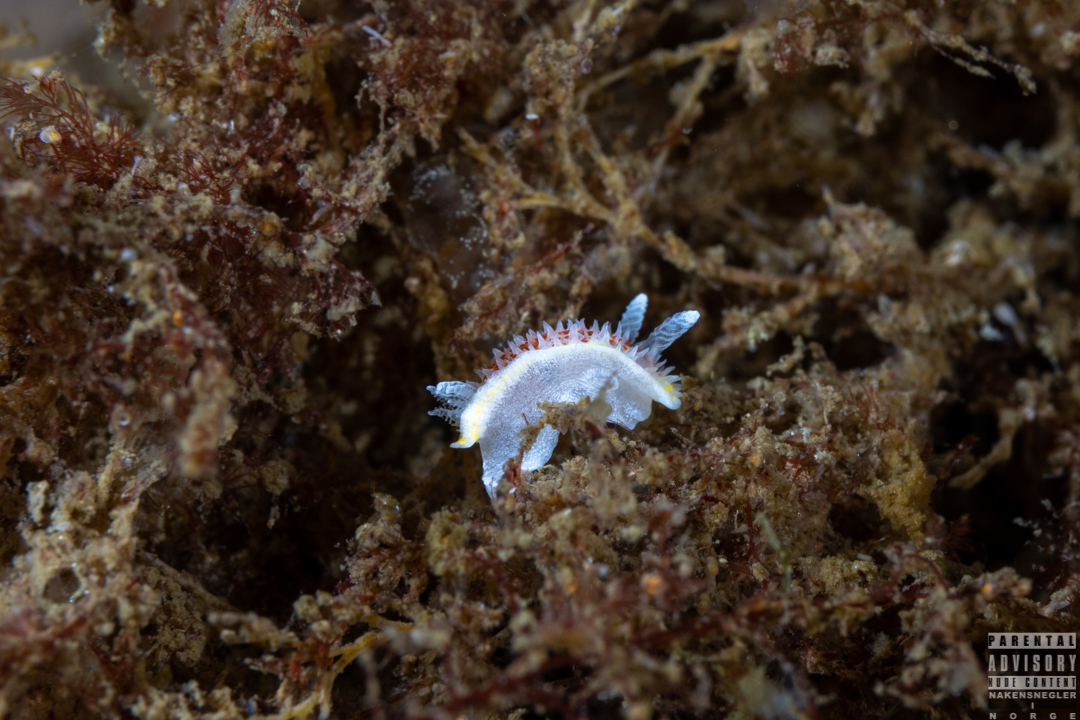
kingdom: Animalia
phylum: Mollusca
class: Gastropoda
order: Nudibranchia
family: Calycidorididae
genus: Diaphorodoris
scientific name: Diaphorodoris luteocincta
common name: Fried egg nudibranch
